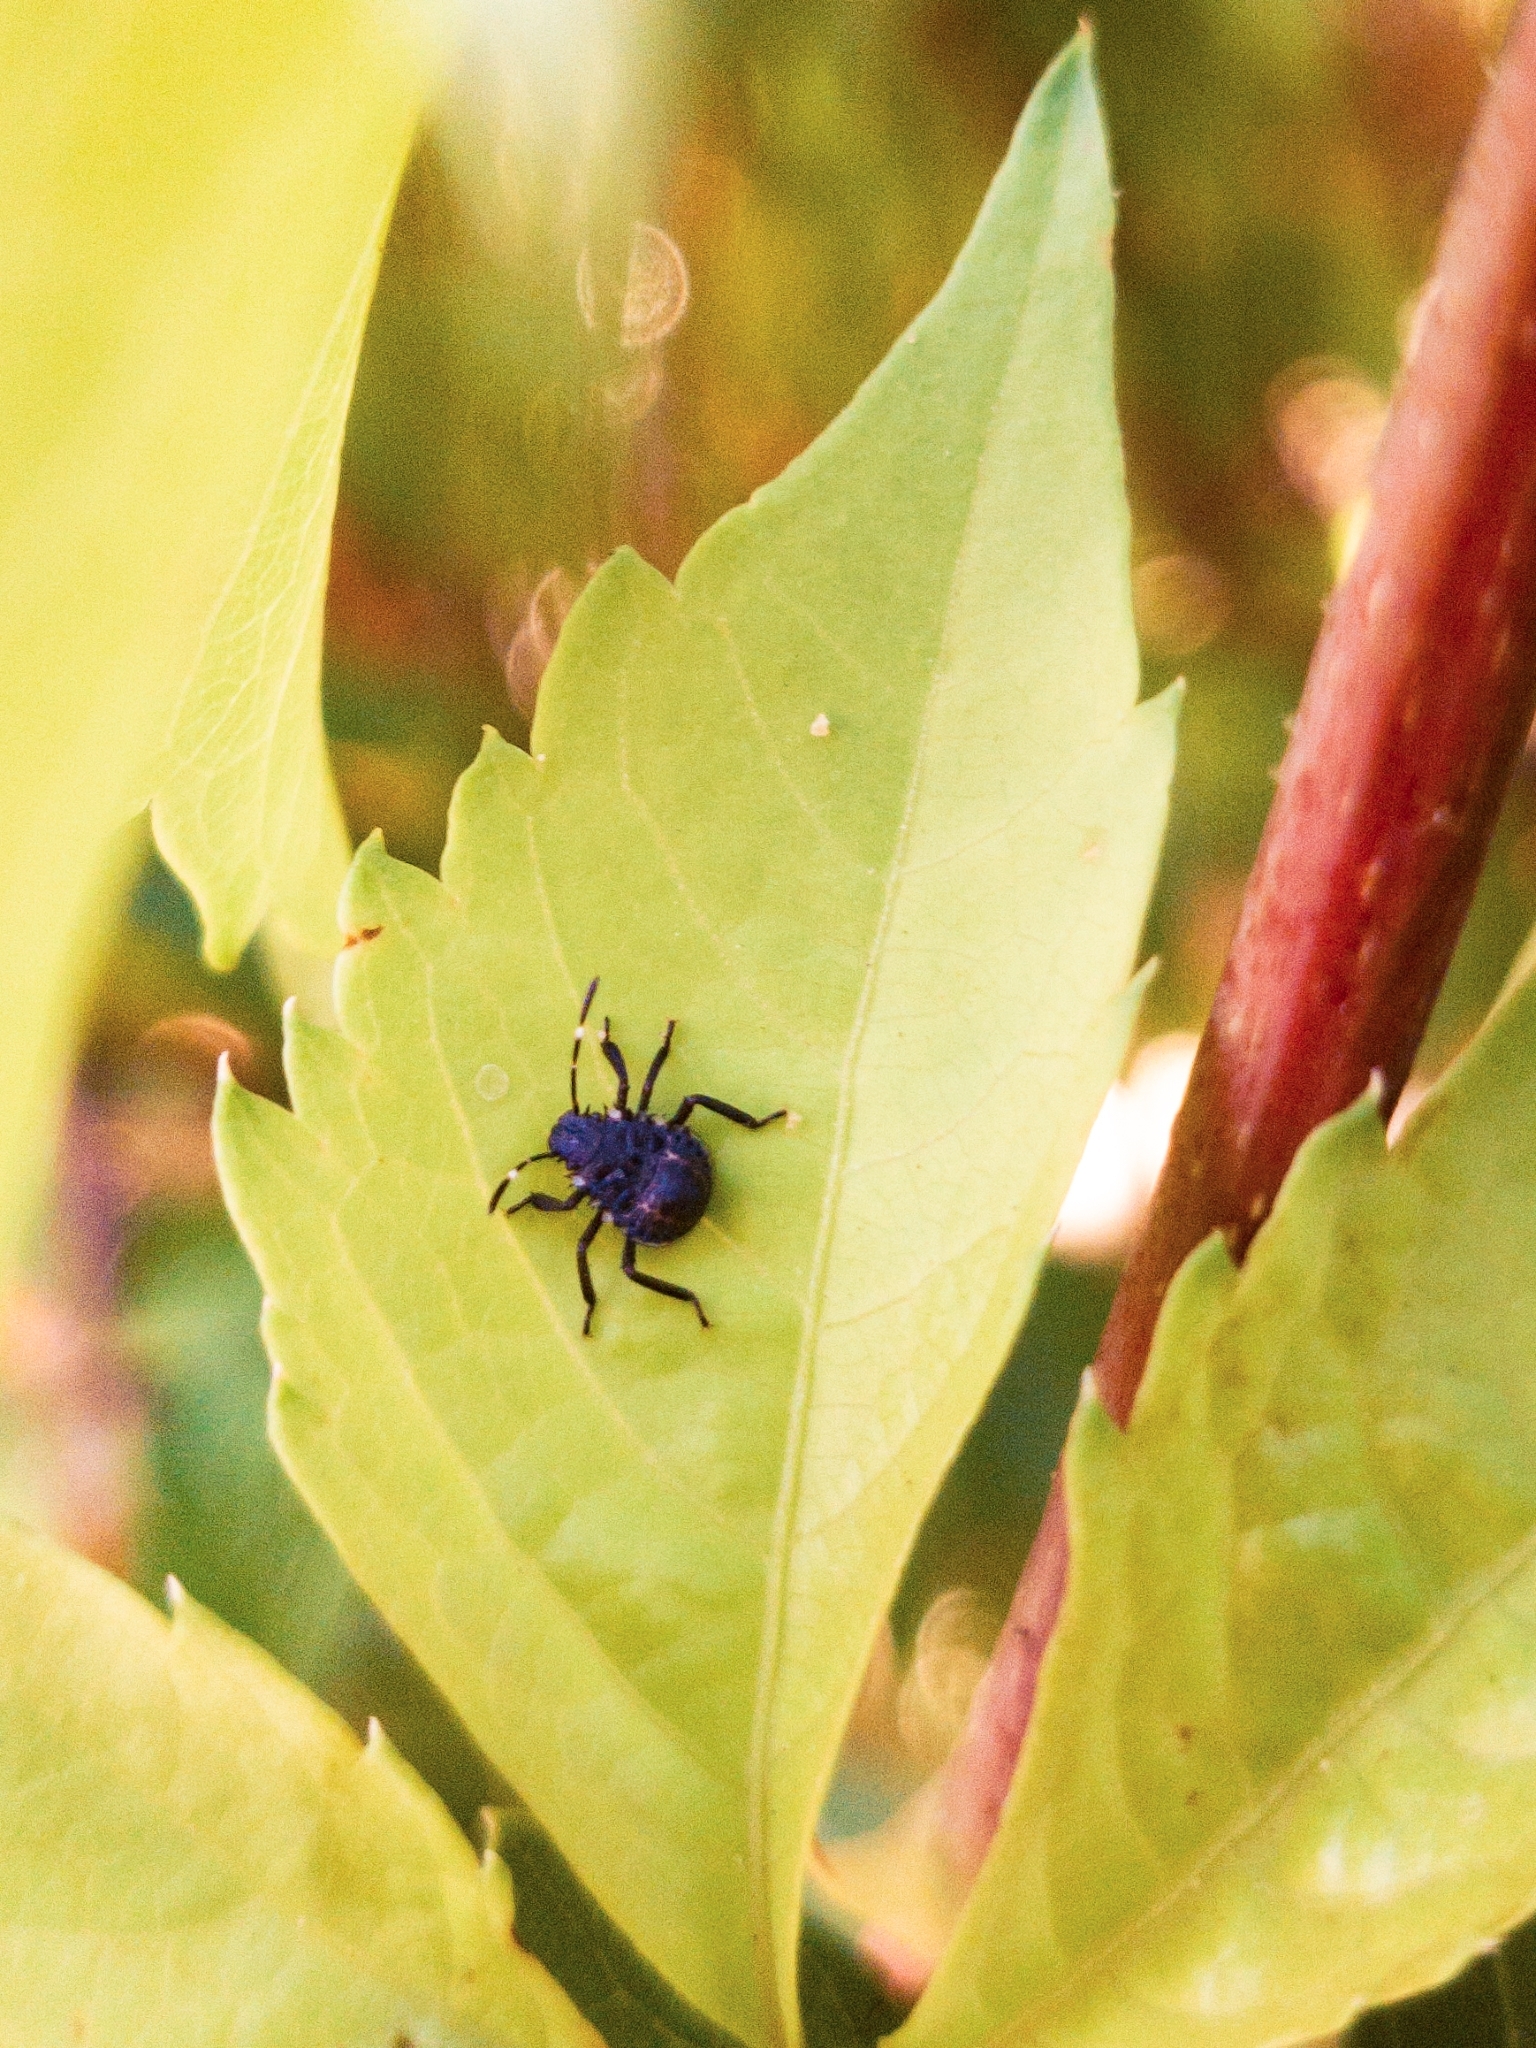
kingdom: Animalia
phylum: Arthropoda
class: Insecta
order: Hemiptera
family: Pentatomidae
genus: Halyomorpha
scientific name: Halyomorpha halys
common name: Brown marmorated stink bug
